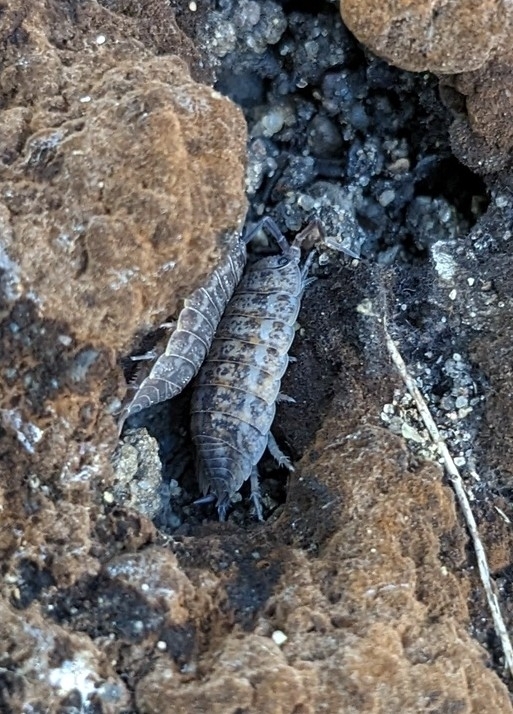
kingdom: Animalia
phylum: Arthropoda
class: Malacostraca
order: Isopoda
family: Trachelipodidae
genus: Trachelipus
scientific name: Trachelipus rathkii
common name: Isopod
